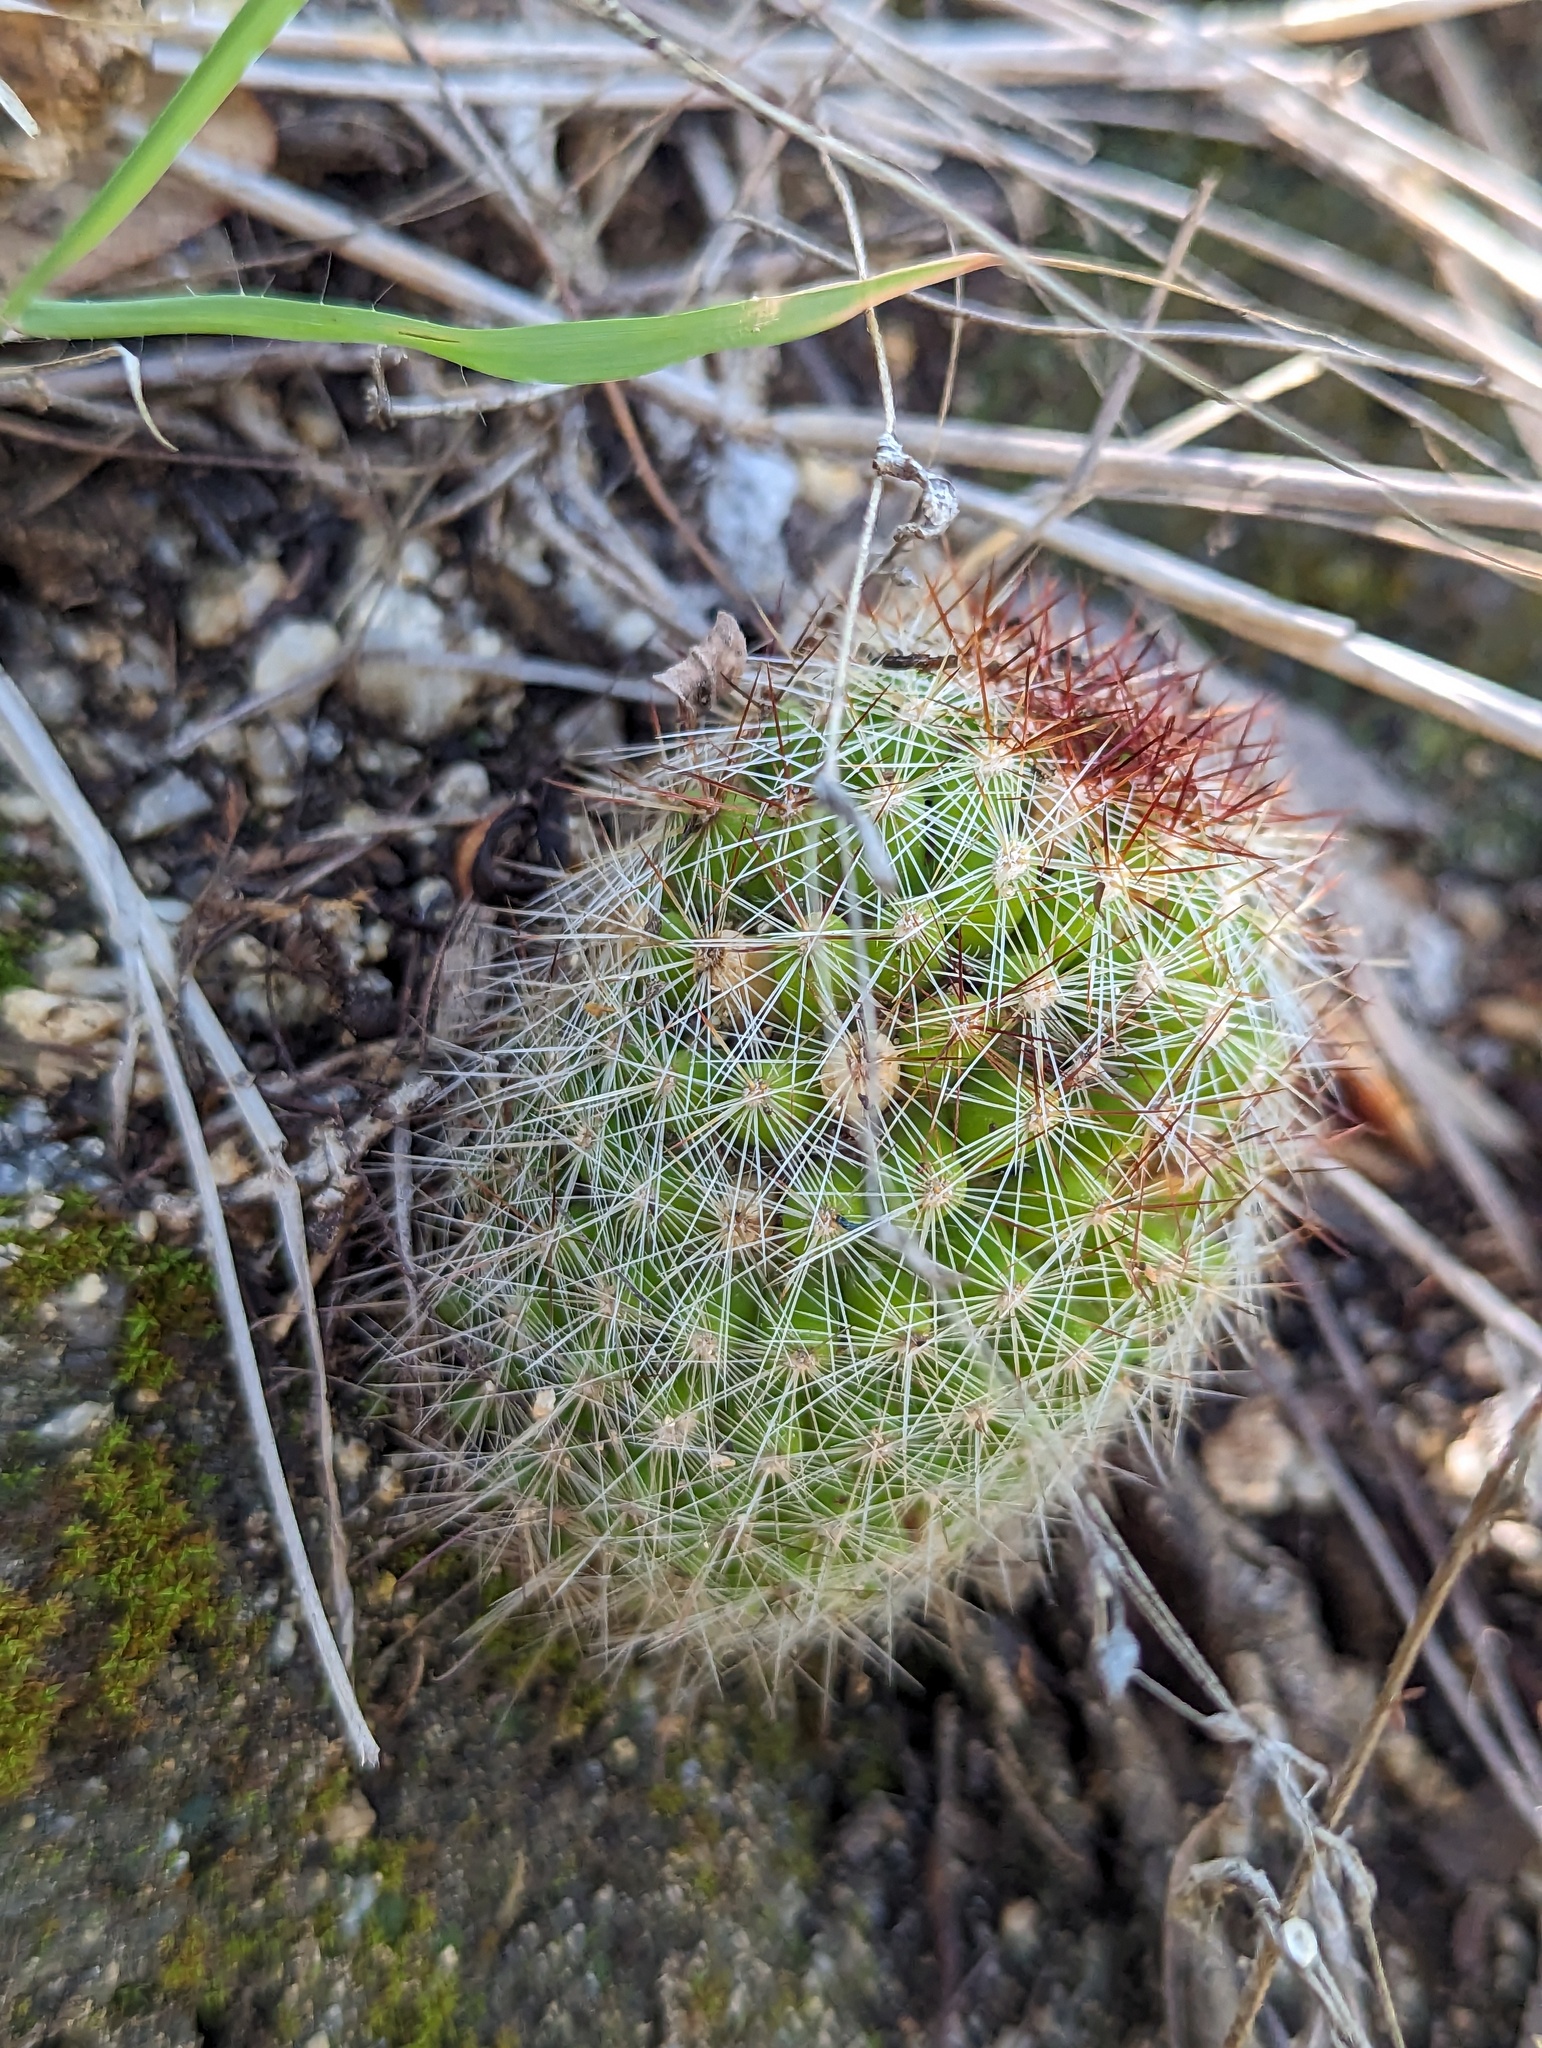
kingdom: Plantae
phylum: Tracheophyta
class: Magnoliopsida
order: Caryophyllales
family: Cactaceae
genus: Cochemiea
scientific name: Cochemiea phitauiana
